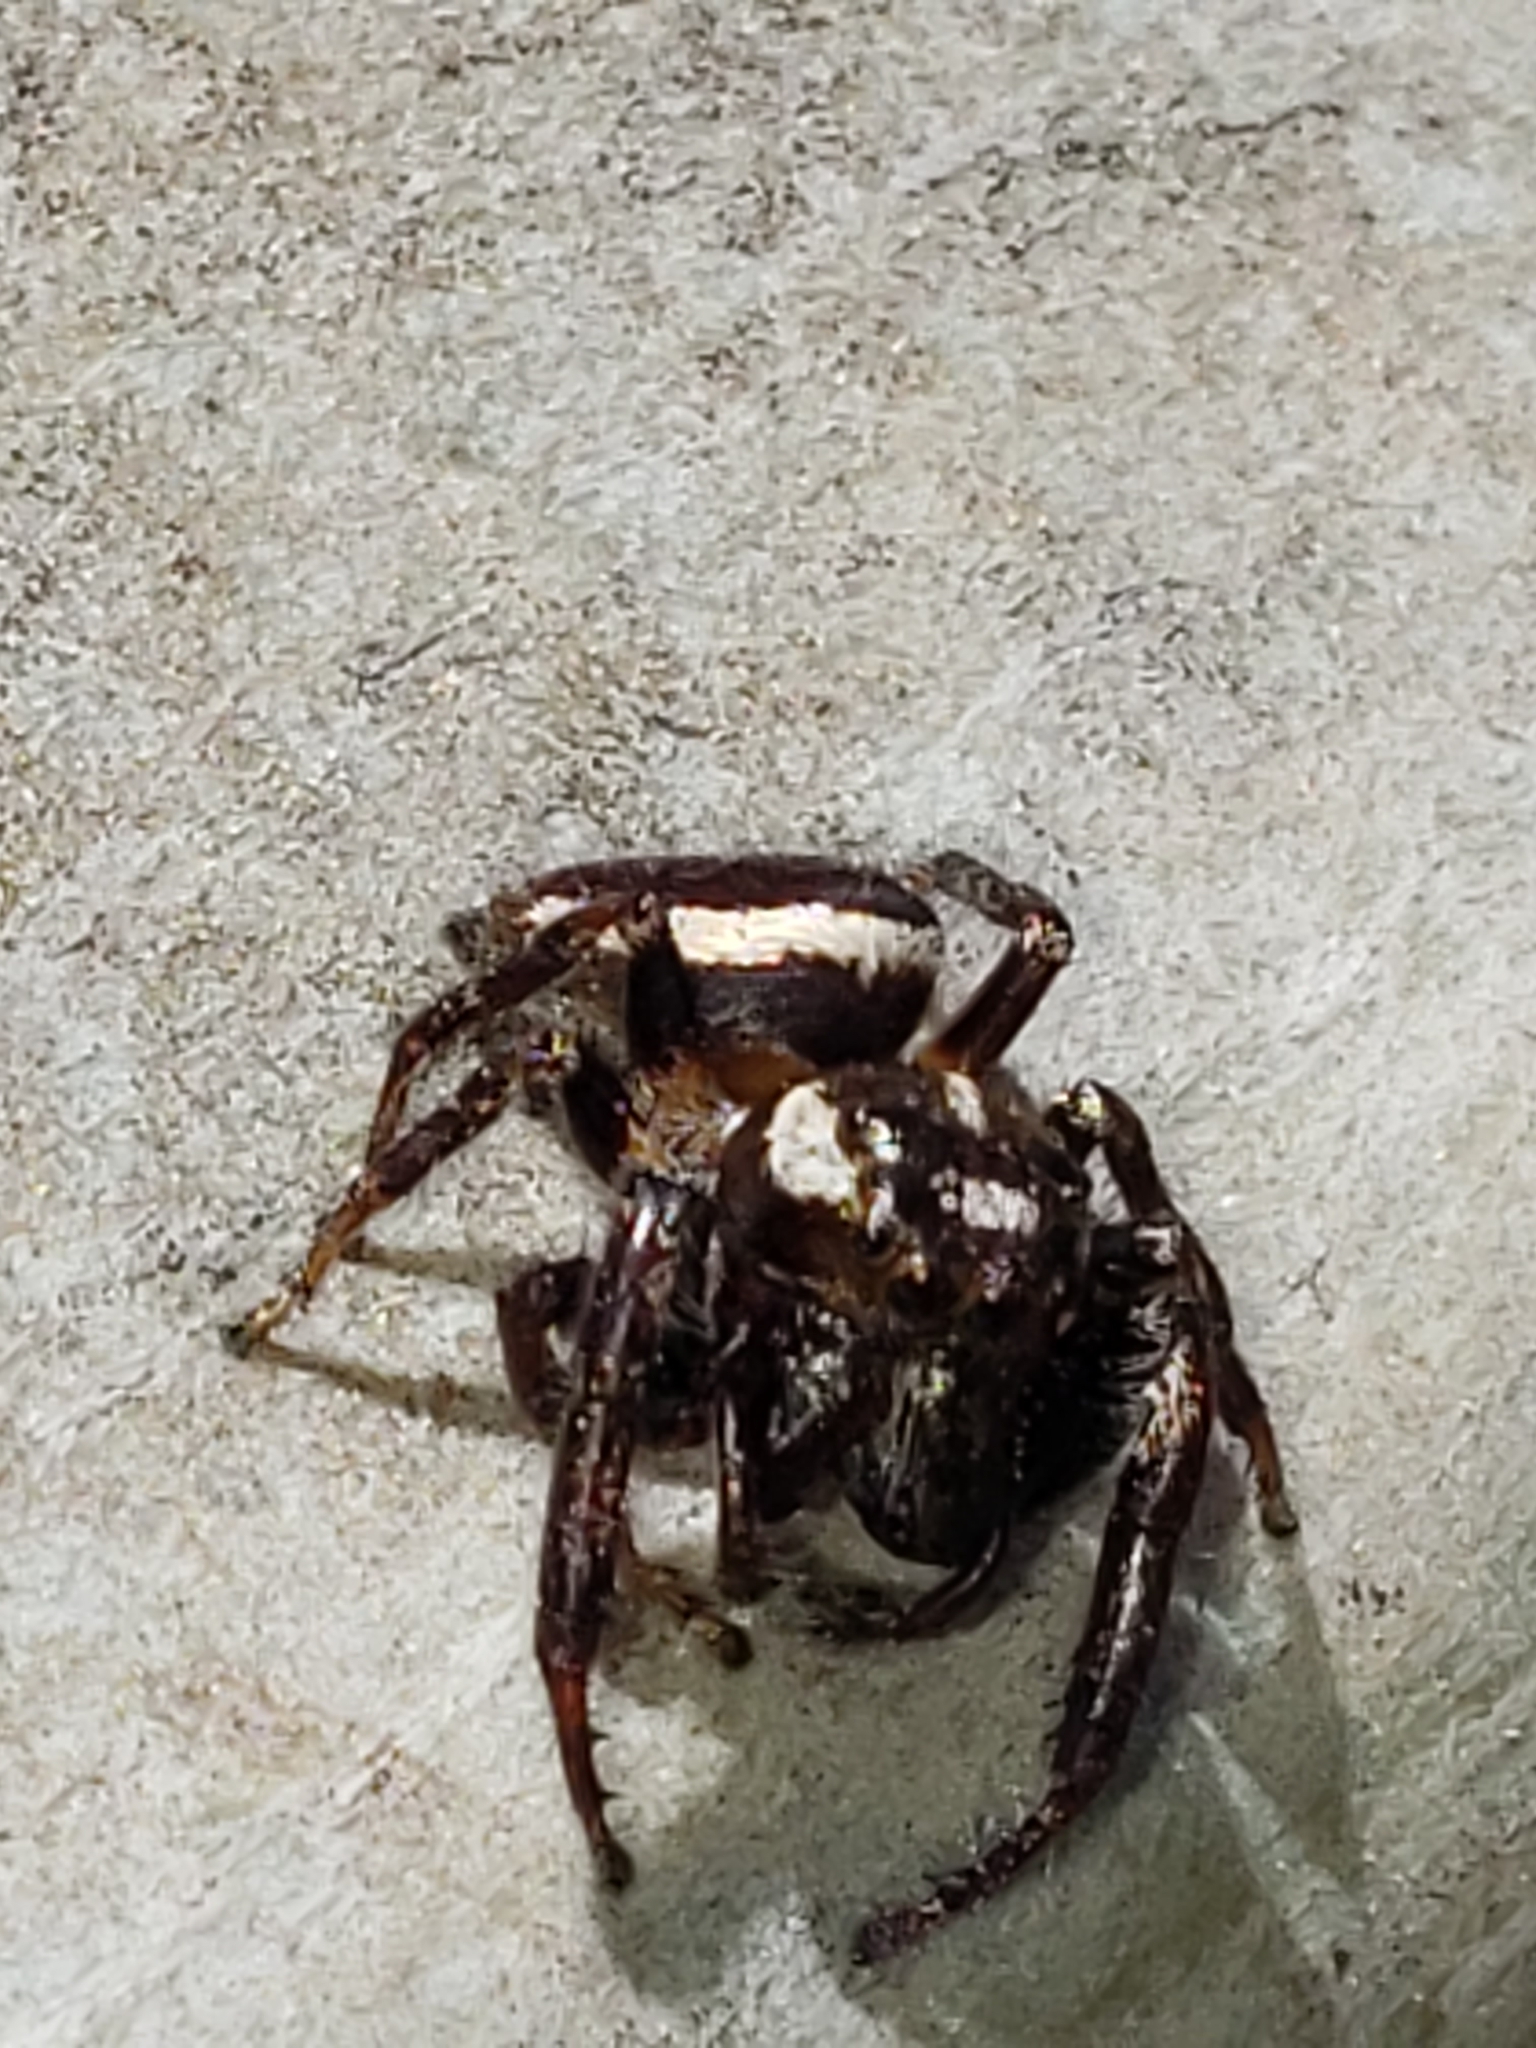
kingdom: Animalia
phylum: Arthropoda
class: Arachnida
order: Araneae
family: Salticidae
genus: Eris
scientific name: Eris militaris
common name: Bronze jumper
